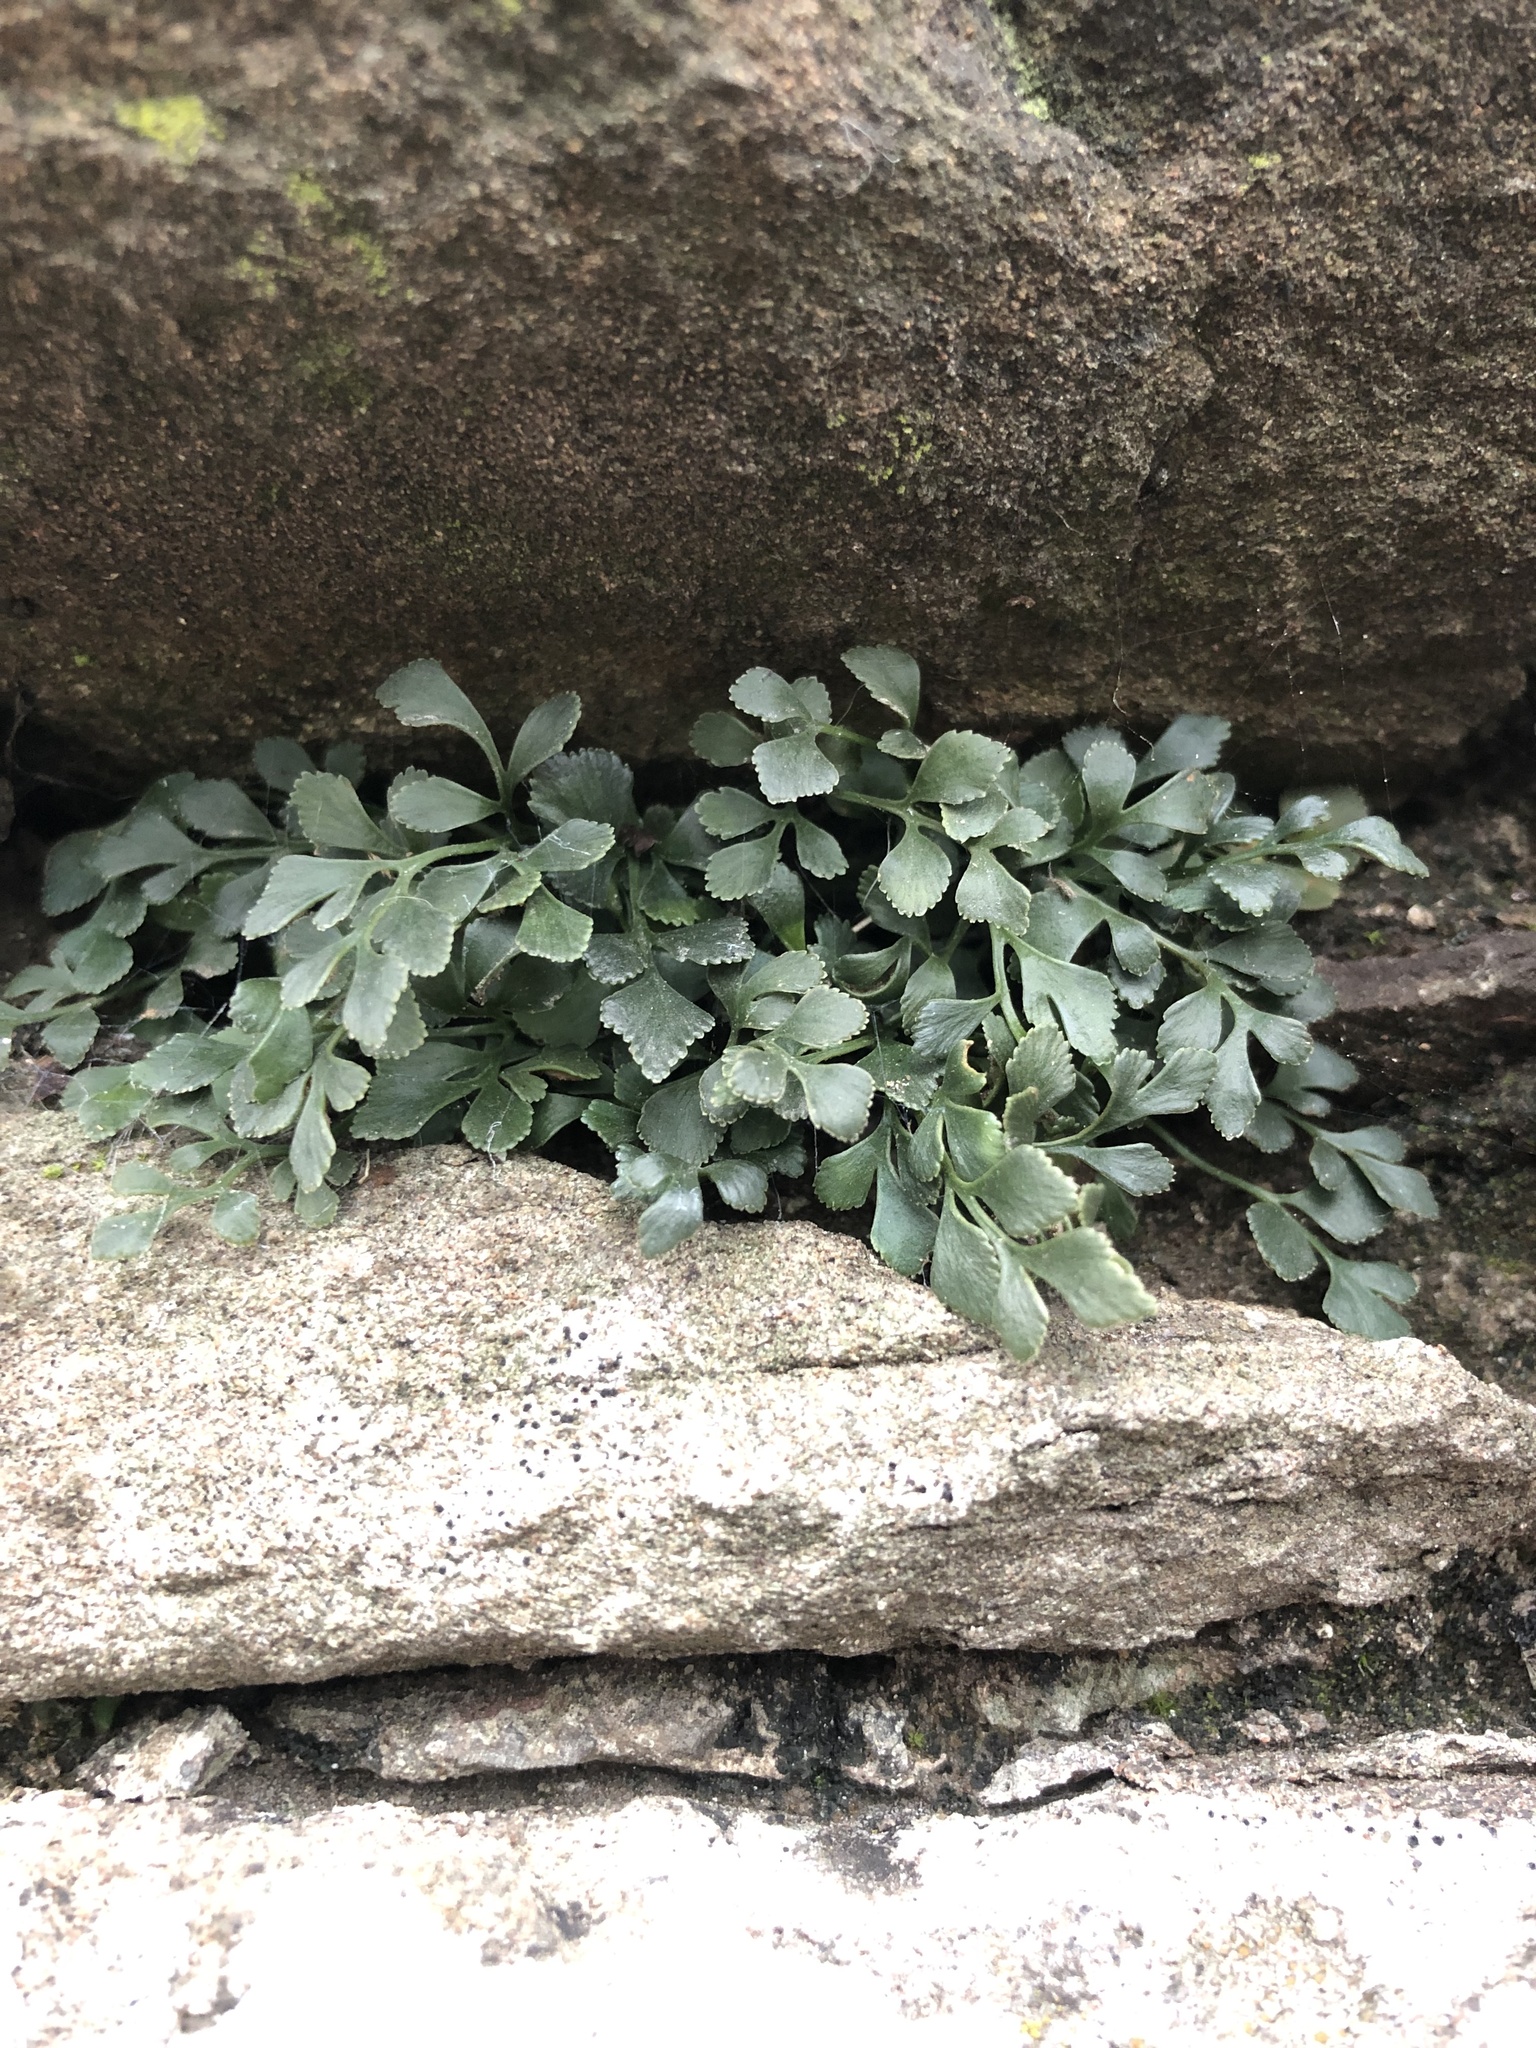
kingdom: Plantae
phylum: Tracheophyta
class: Polypodiopsida
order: Polypodiales
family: Aspleniaceae
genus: Asplenium
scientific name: Asplenium ruta-muraria
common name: Wall-rue
